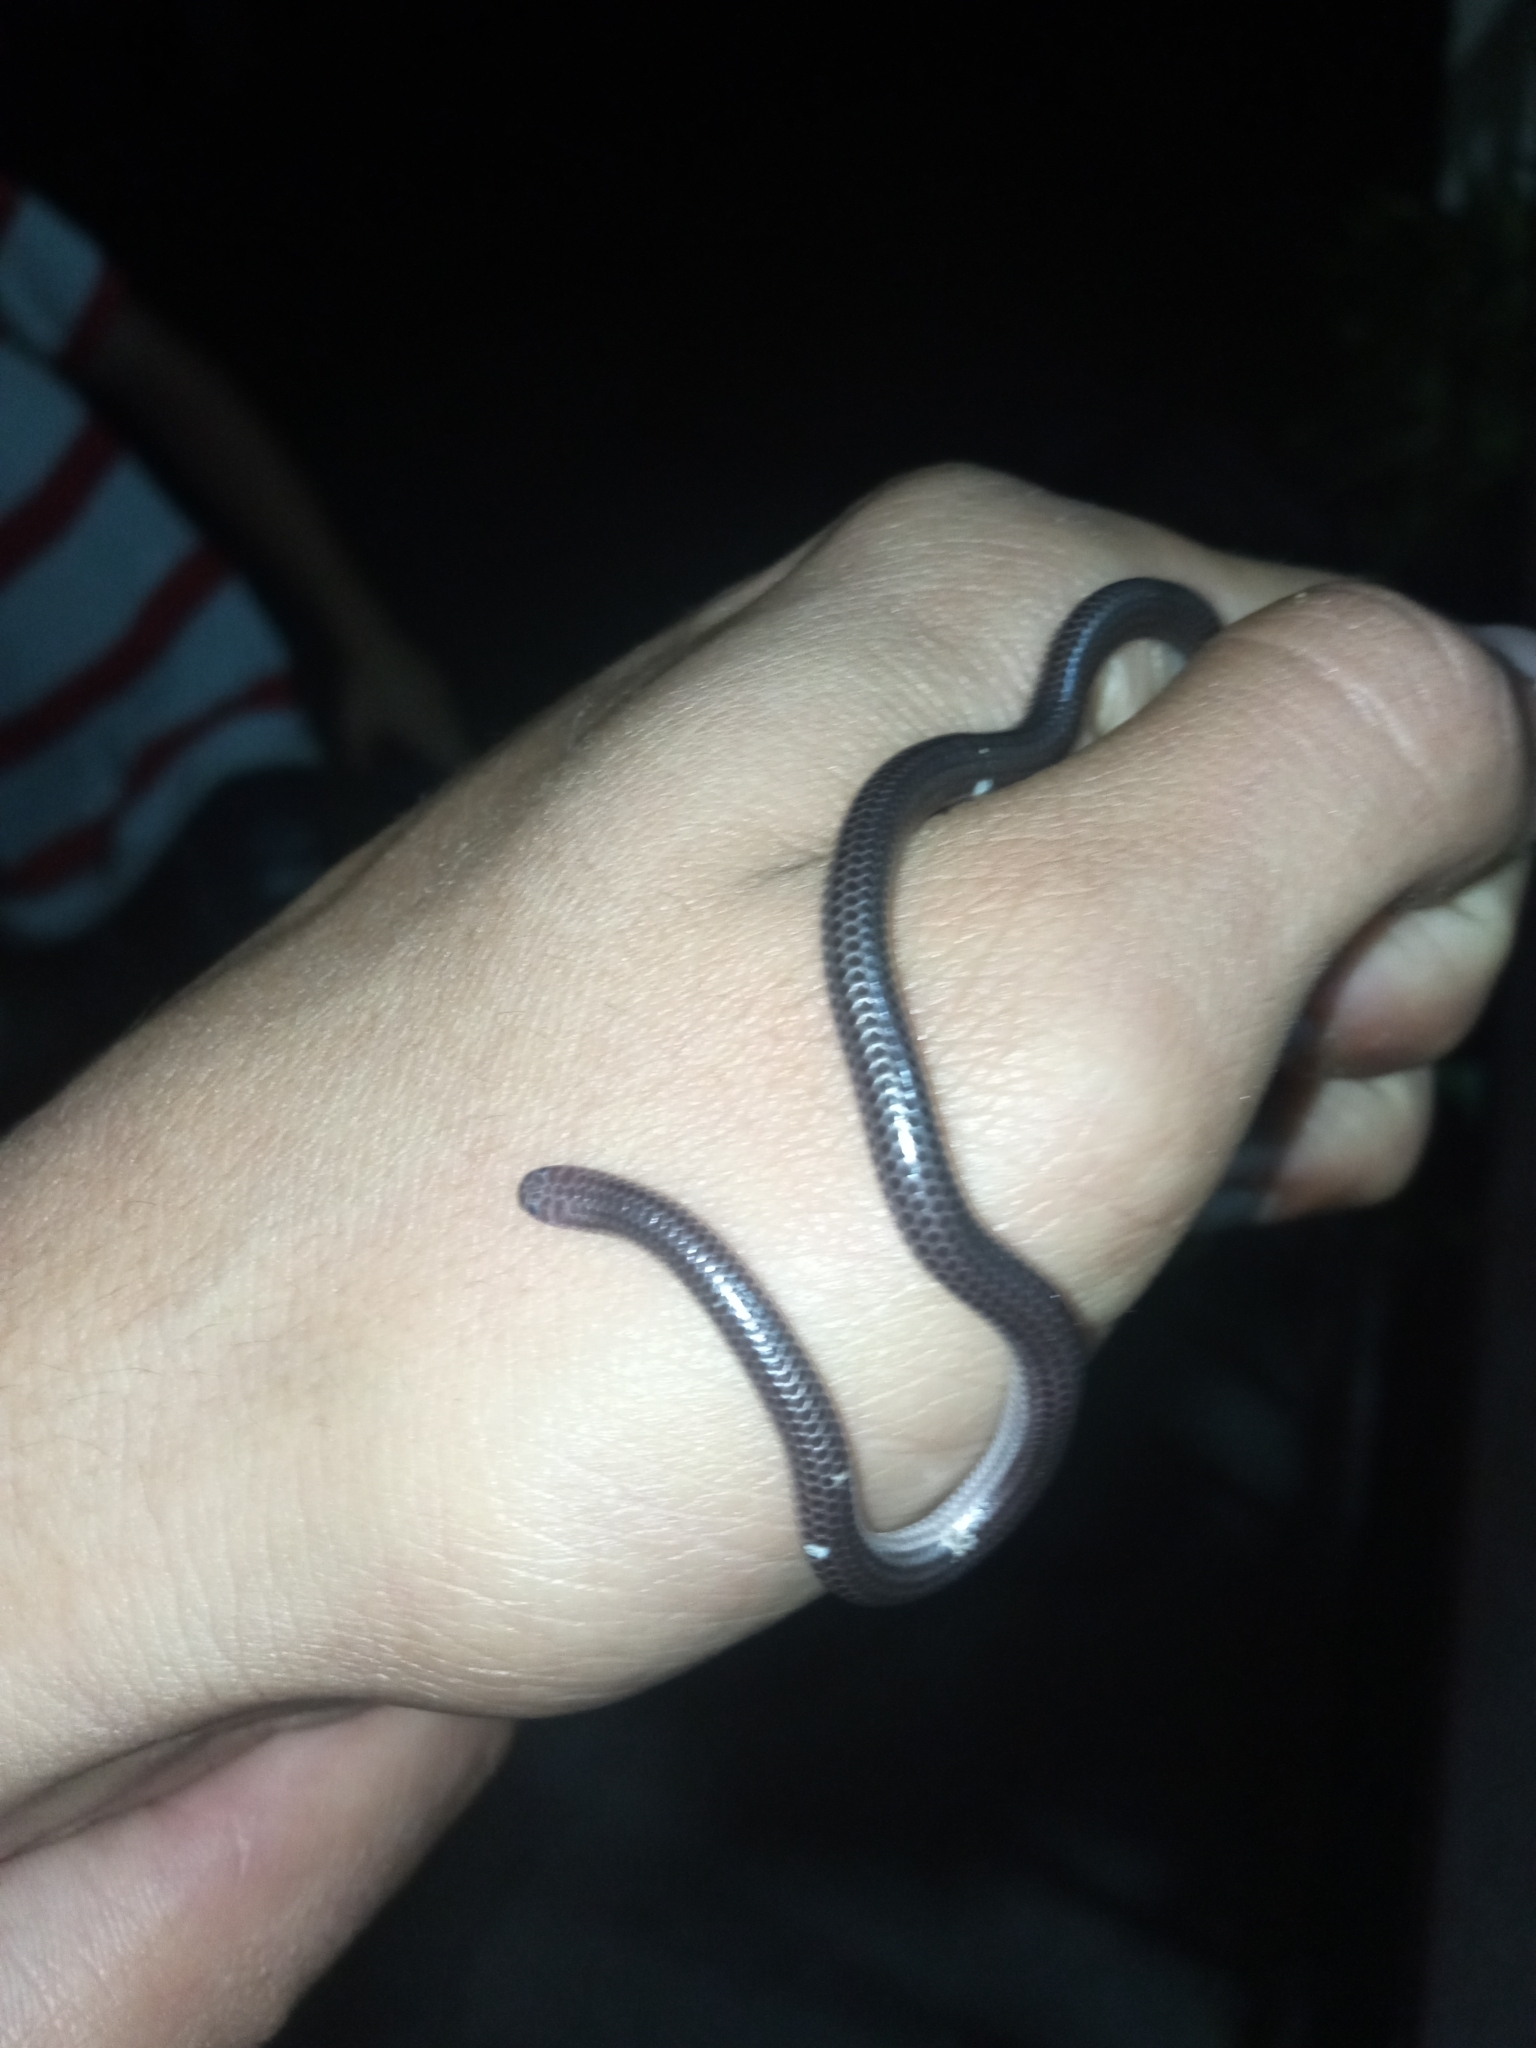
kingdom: Animalia
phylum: Chordata
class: Squamata
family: Leptotyphlopidae
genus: Trilepida
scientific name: Trilepida macrolepis
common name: Big-scaled blind snake
